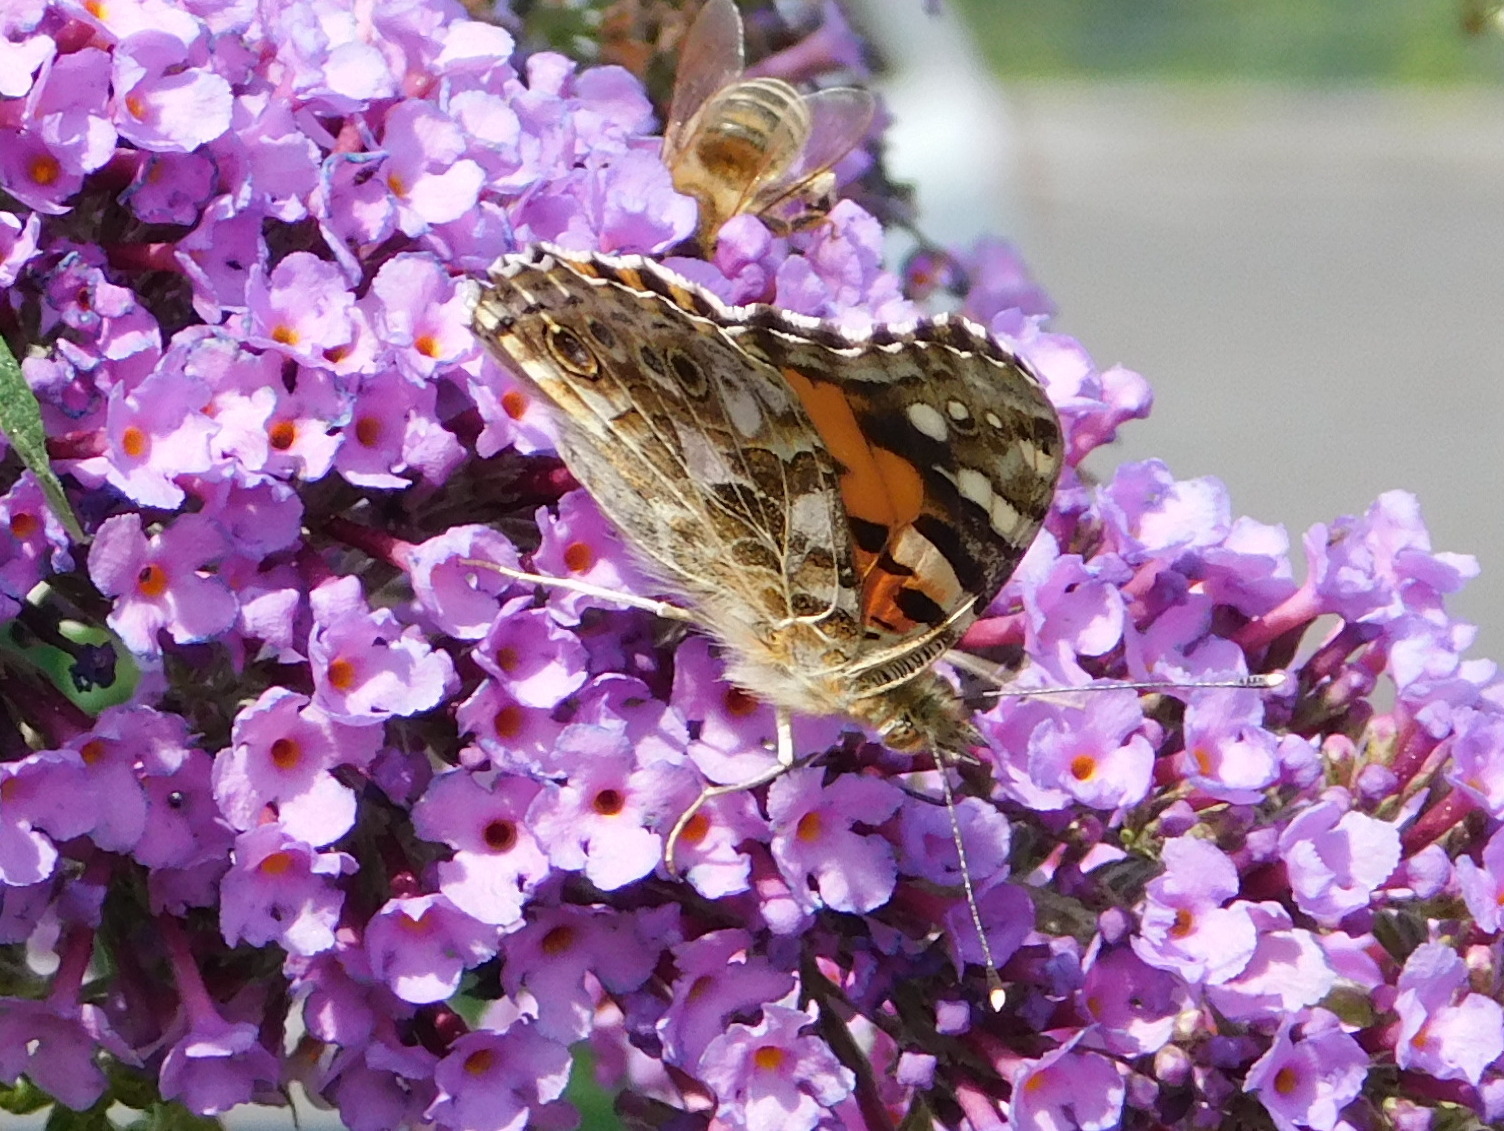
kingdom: Animalia
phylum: Arthropoda
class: Insecta
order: Lepidoptera
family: Nymphalidae
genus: Vanessa
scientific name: Vanessa cardui
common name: Painted lady
